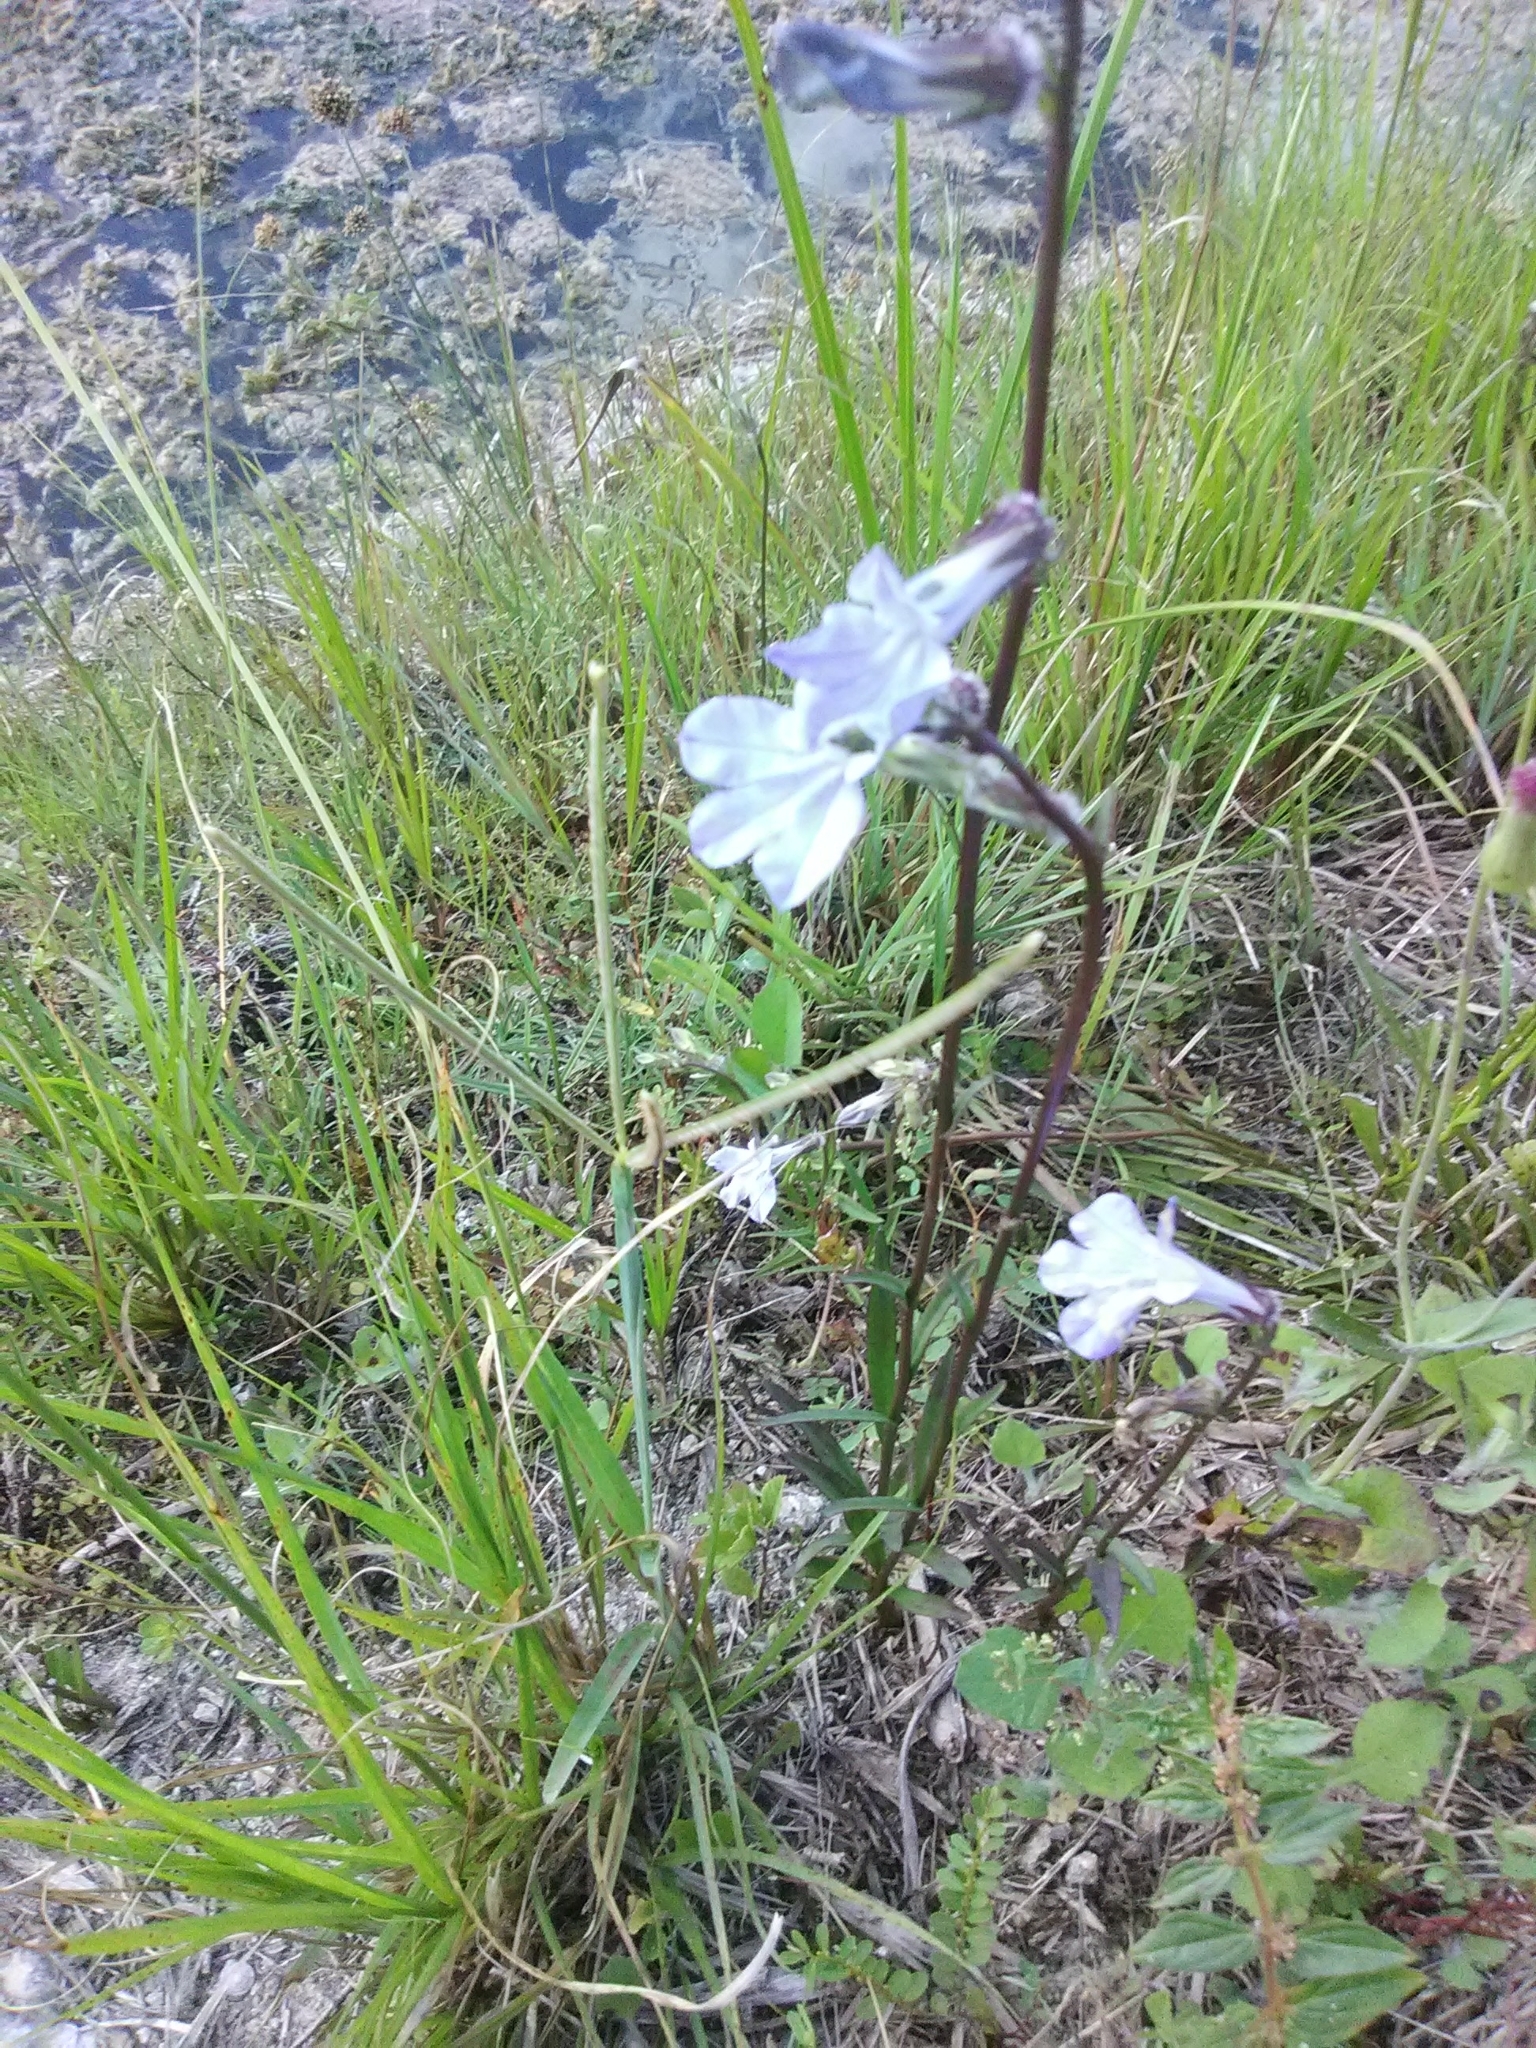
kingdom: Plantae
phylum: Tracheophyta
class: Magnoliopsida
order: Asterales
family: Campanulaceae
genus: Lobelia
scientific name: Lobelia glandulosa
